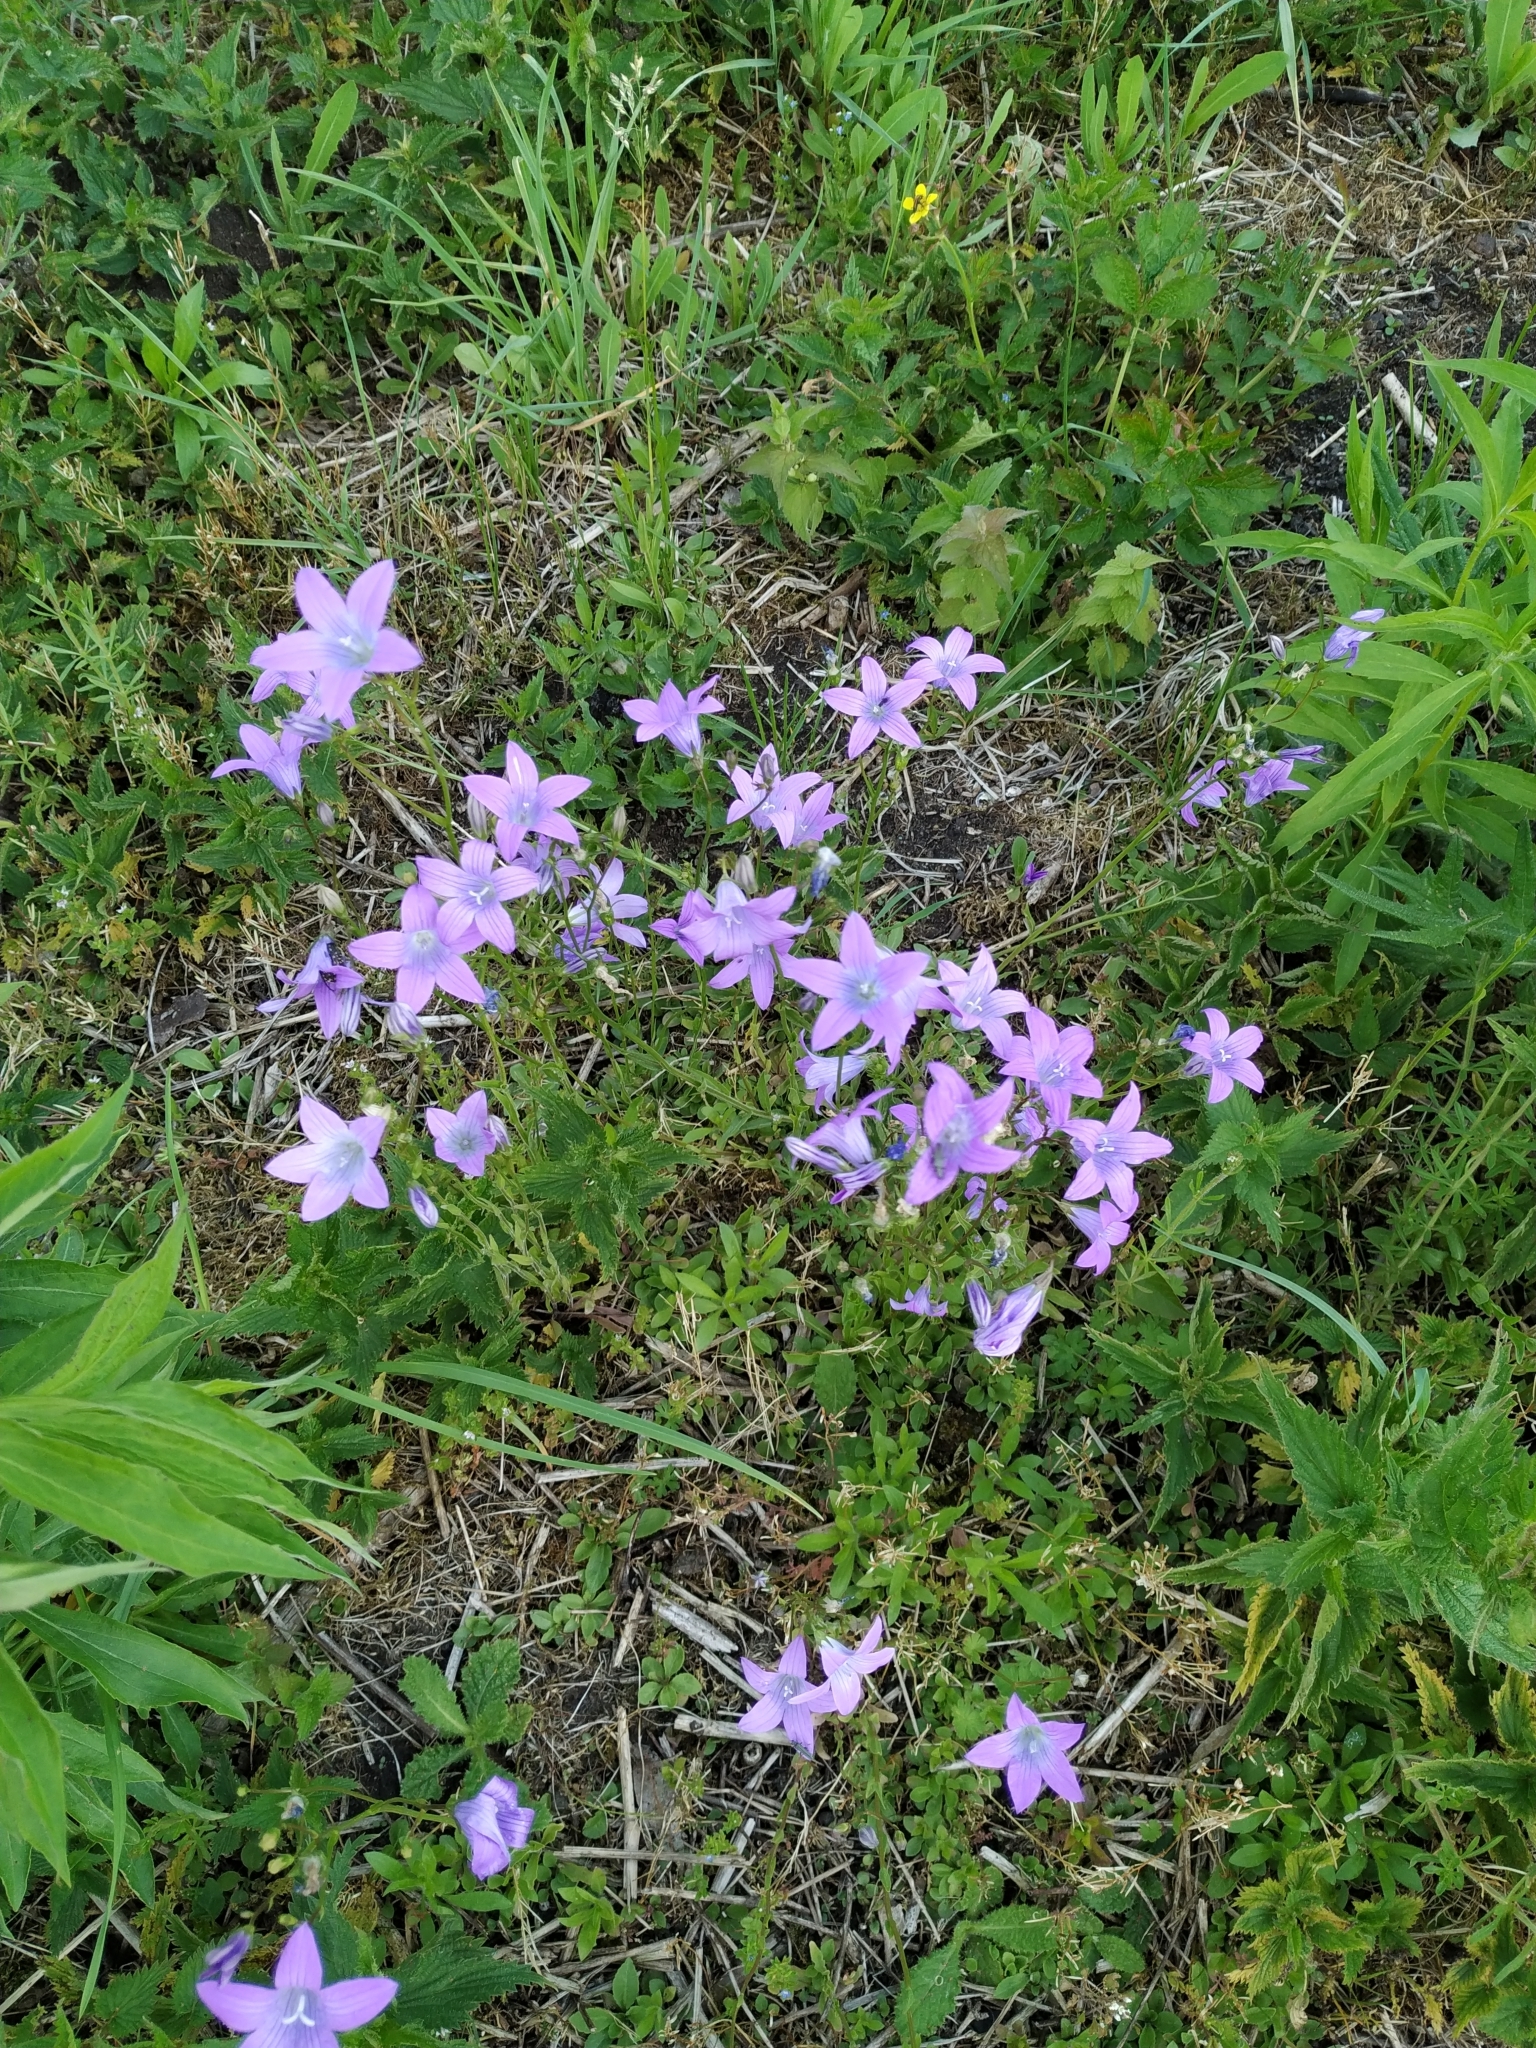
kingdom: Plantae
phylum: Tracheophyta
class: Magnoliopsida
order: Asterales
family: Campanulaceae
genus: Campanula
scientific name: Campanula patula
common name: Spreading bellflower
